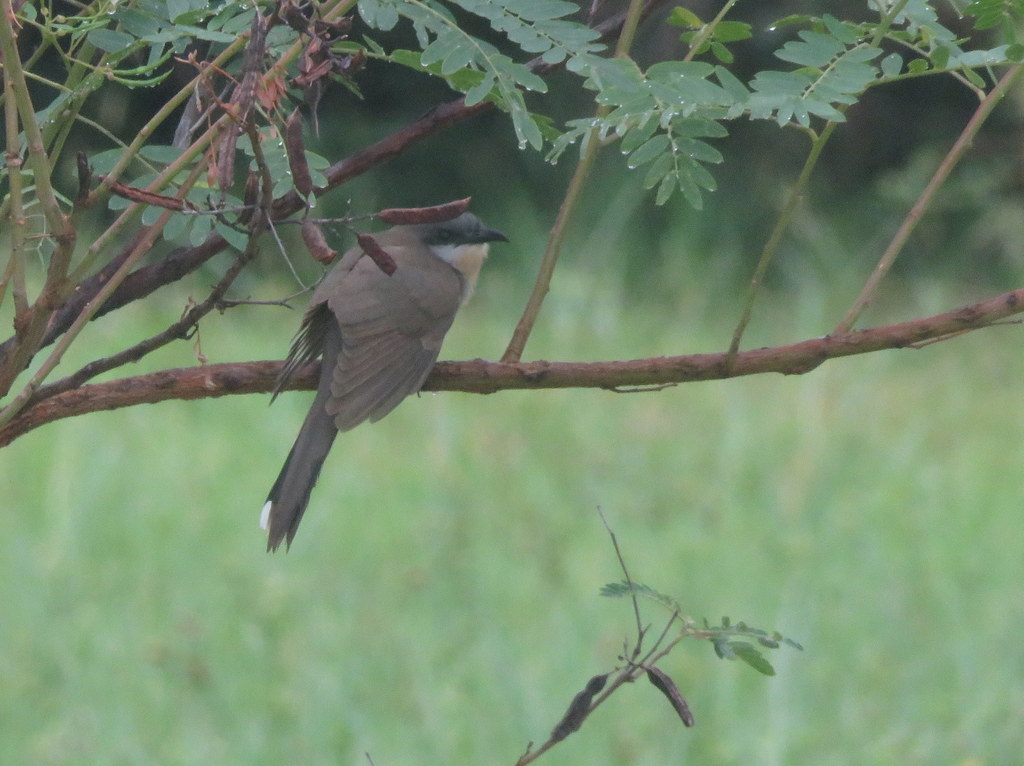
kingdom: Animalia
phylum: Chordata
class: Aves
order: Cuculiformes
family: Cuculidae
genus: Coccyzus
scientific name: Coccyzus melacoryphus
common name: Dark-billed cuckoo
